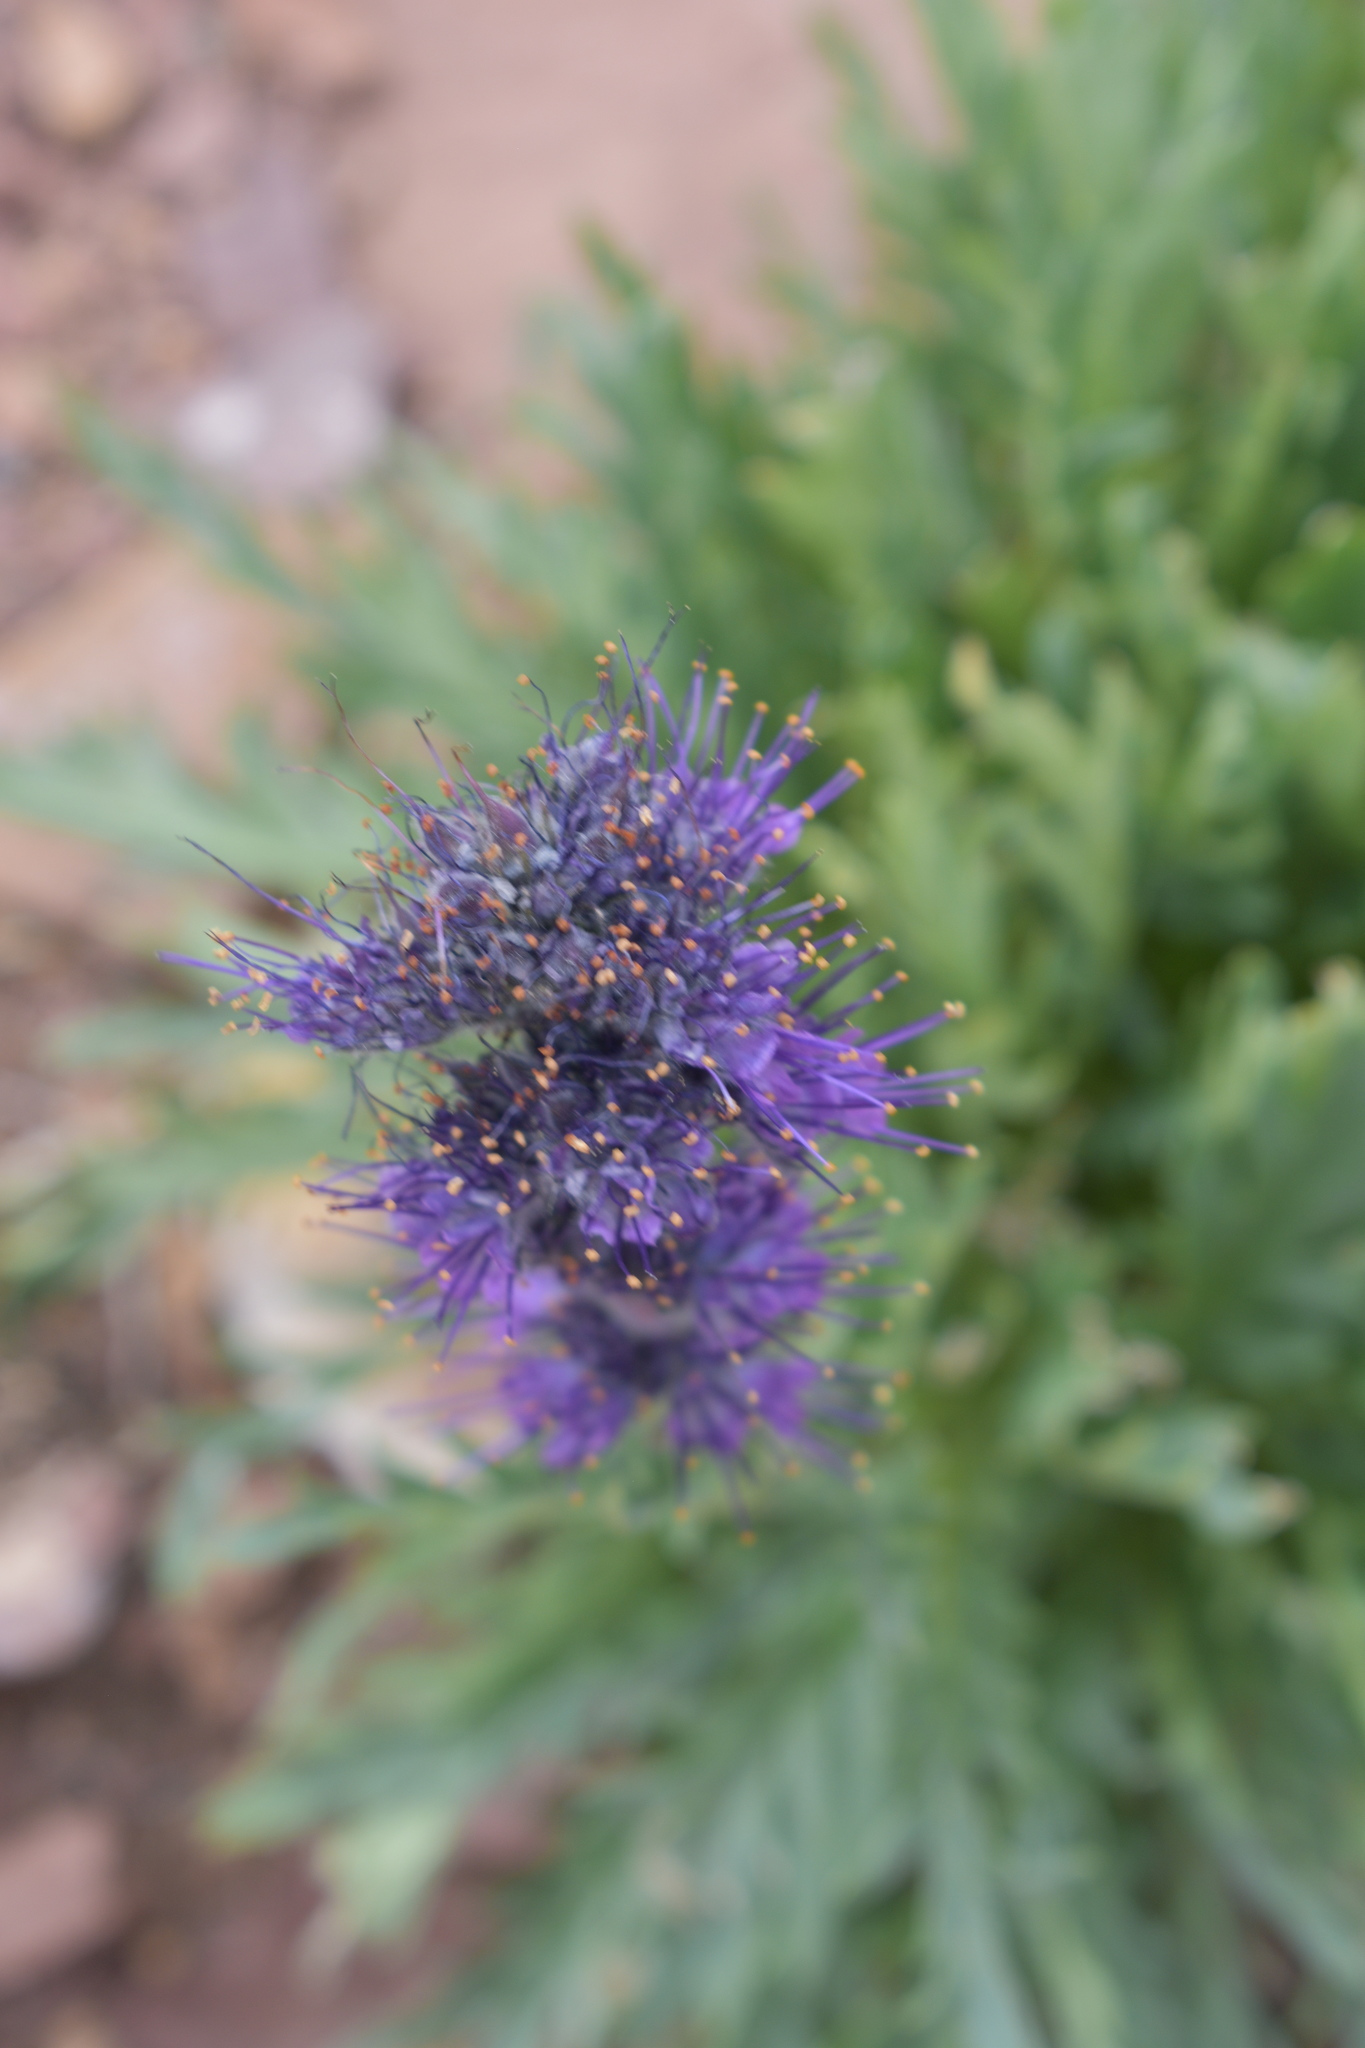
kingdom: Plantae
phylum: Tracheophyta
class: Magnoliopsida
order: Boraginales
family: Hydrophyllaceae
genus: Phacelia
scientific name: Phacelia sericea
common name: Silky phacelia
